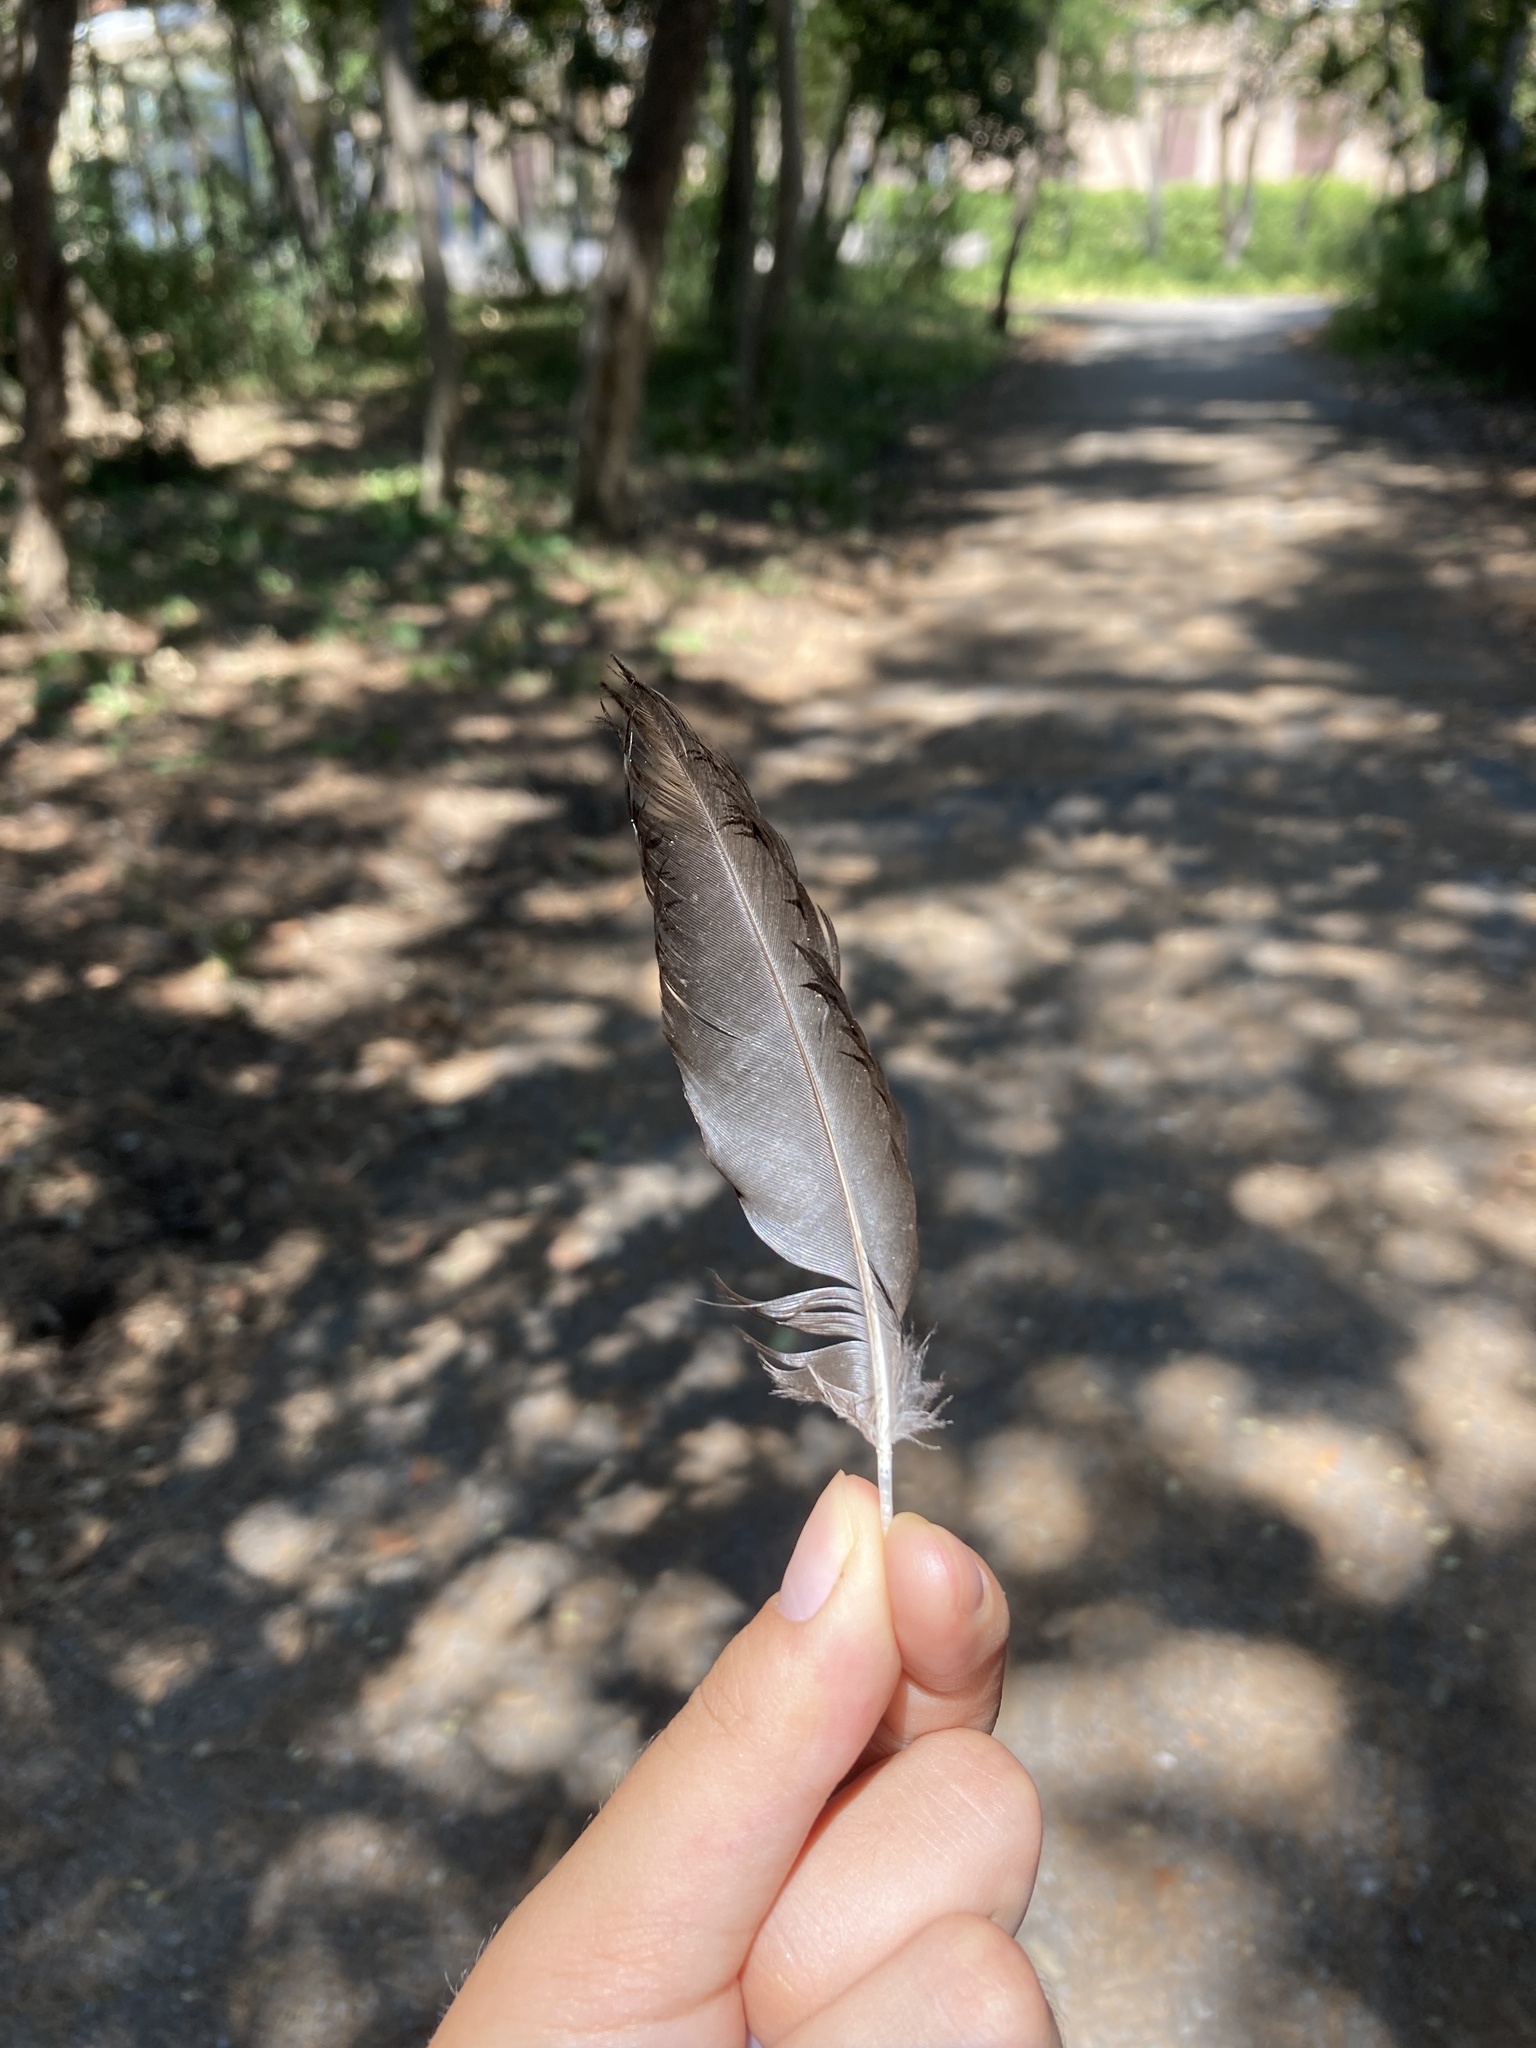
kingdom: Animalia
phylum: Chordata
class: Aves
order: Passeriformes
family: Corvidae
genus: Pica
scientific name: Pica pica
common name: Eurasian magpie
